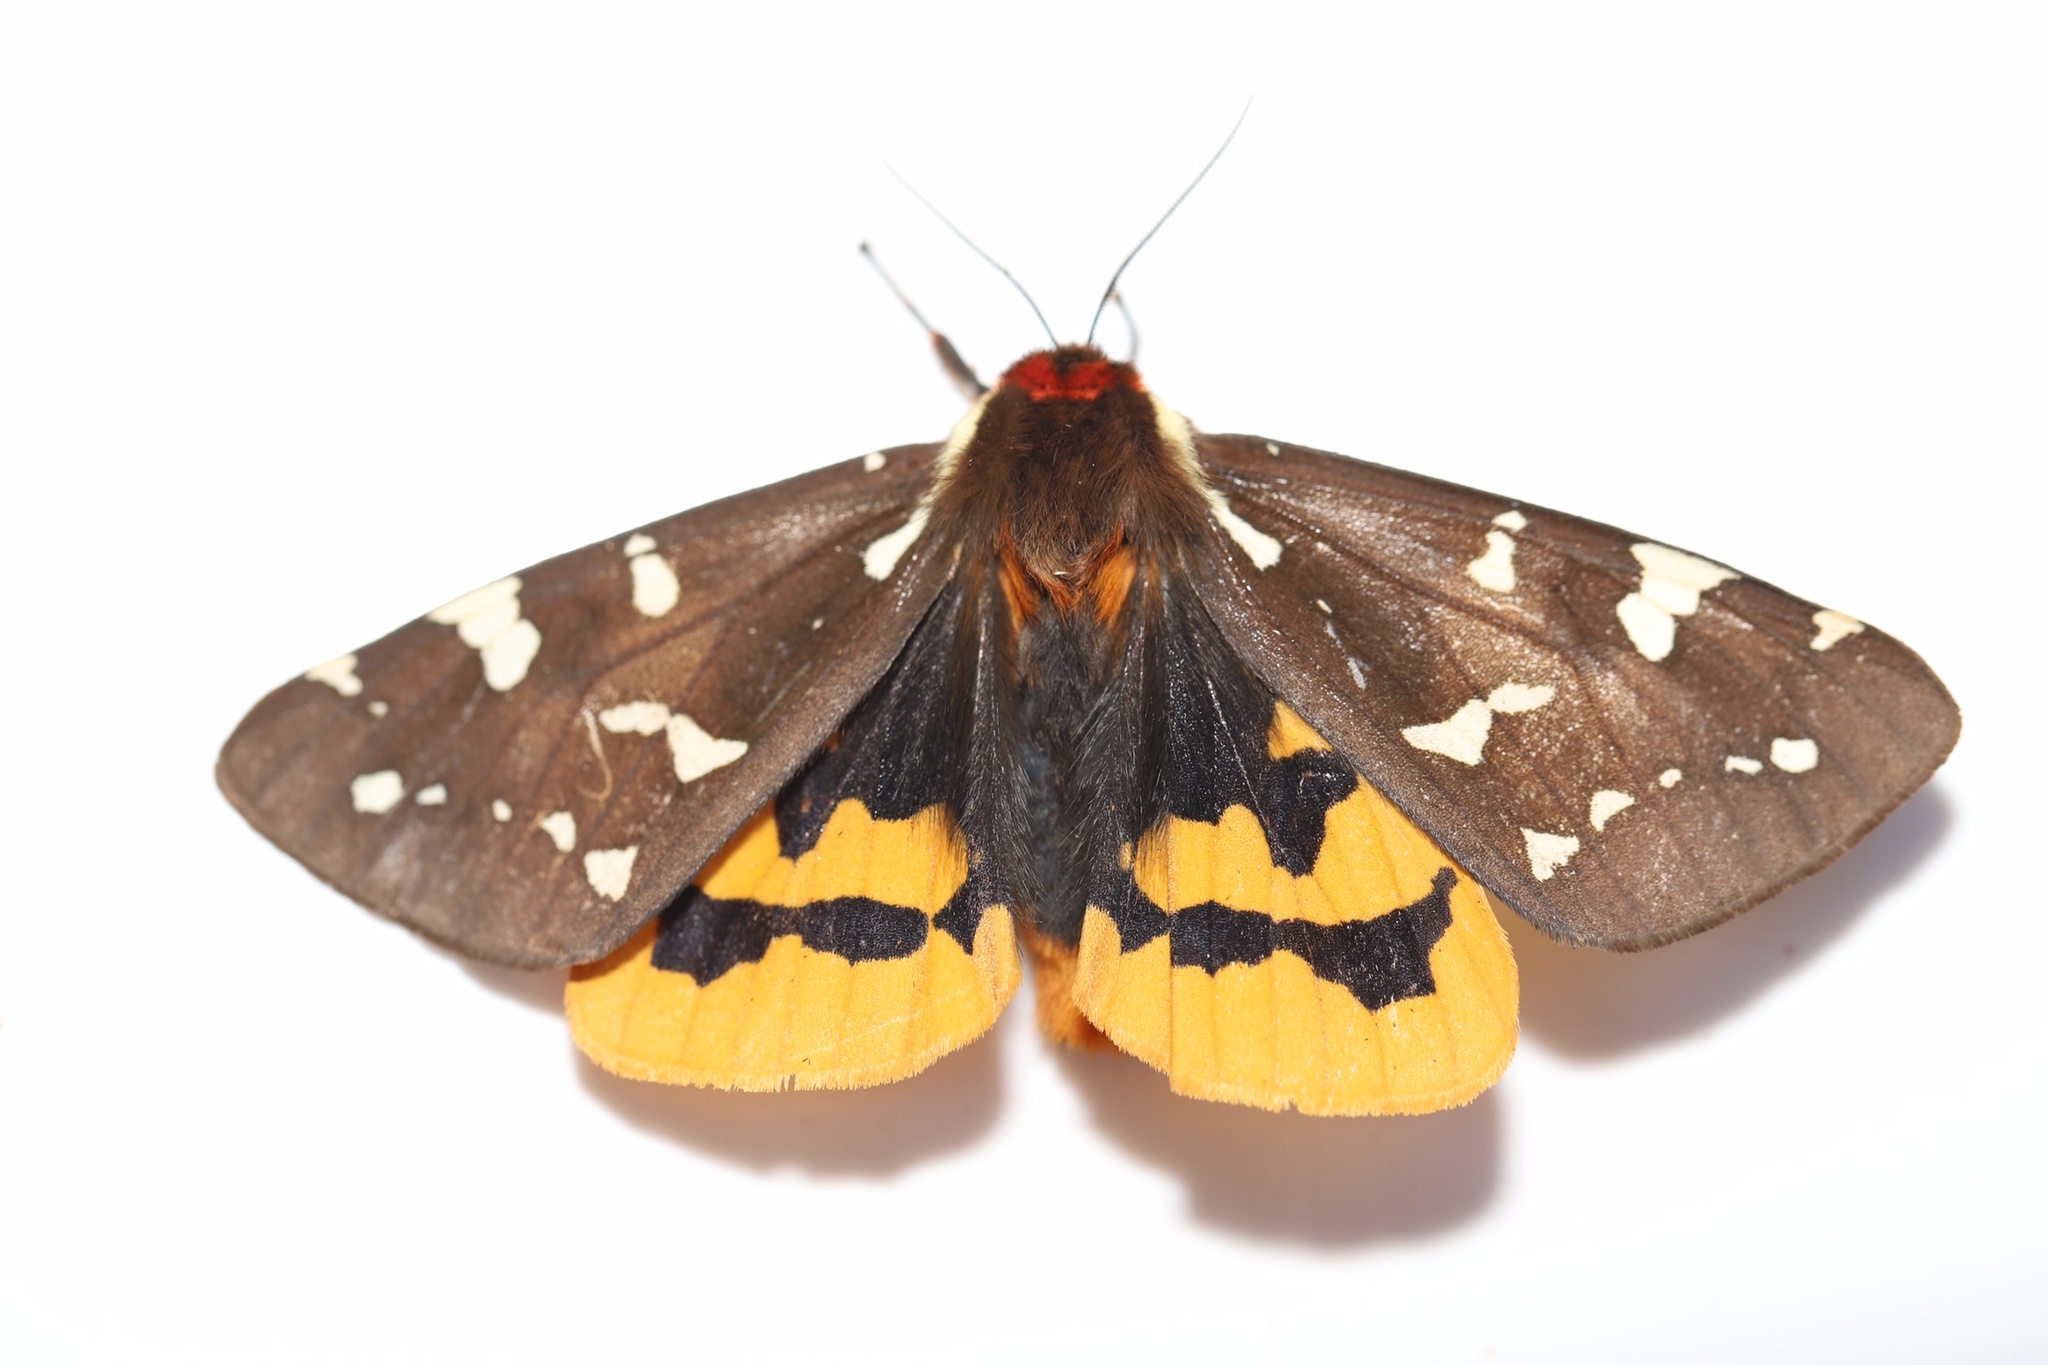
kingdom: Animalia
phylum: Arthropoda
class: Insecta
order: Lepidoptera
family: Erebidae
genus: Arctia
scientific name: Arctia parthenos
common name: St. lawrence tiger moth
